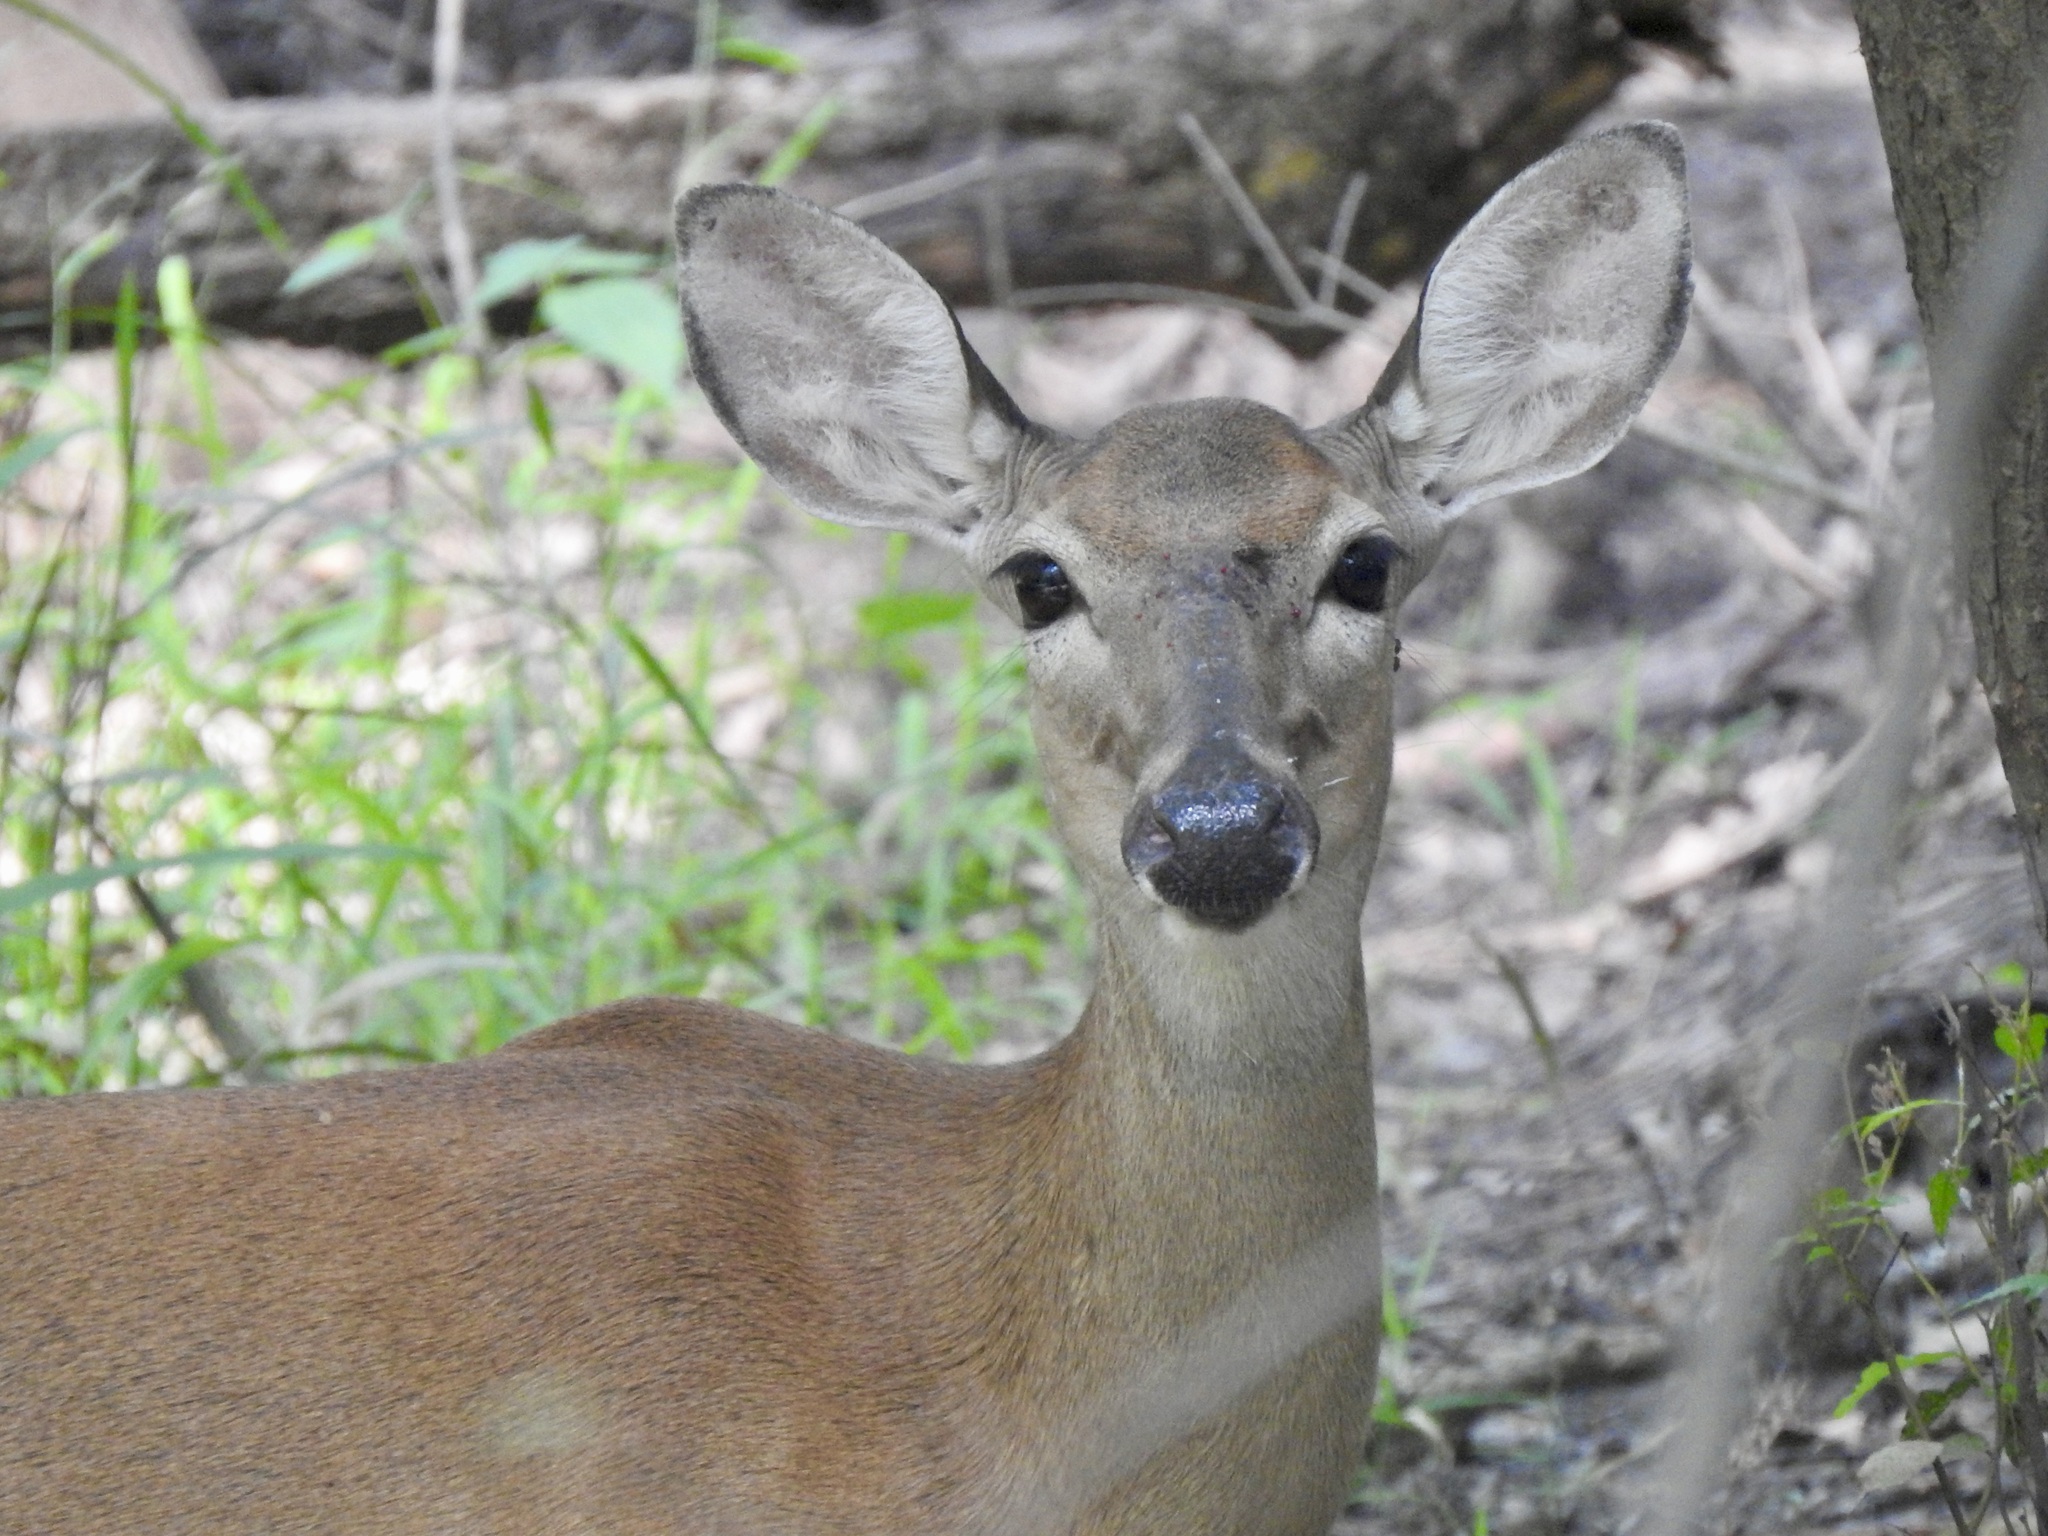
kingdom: Animalia
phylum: Chordata
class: Mammalia
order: Artiodactyla
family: Cervidae
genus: Odocoileus
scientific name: Odocoileus virginianus
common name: White-tailed deer
